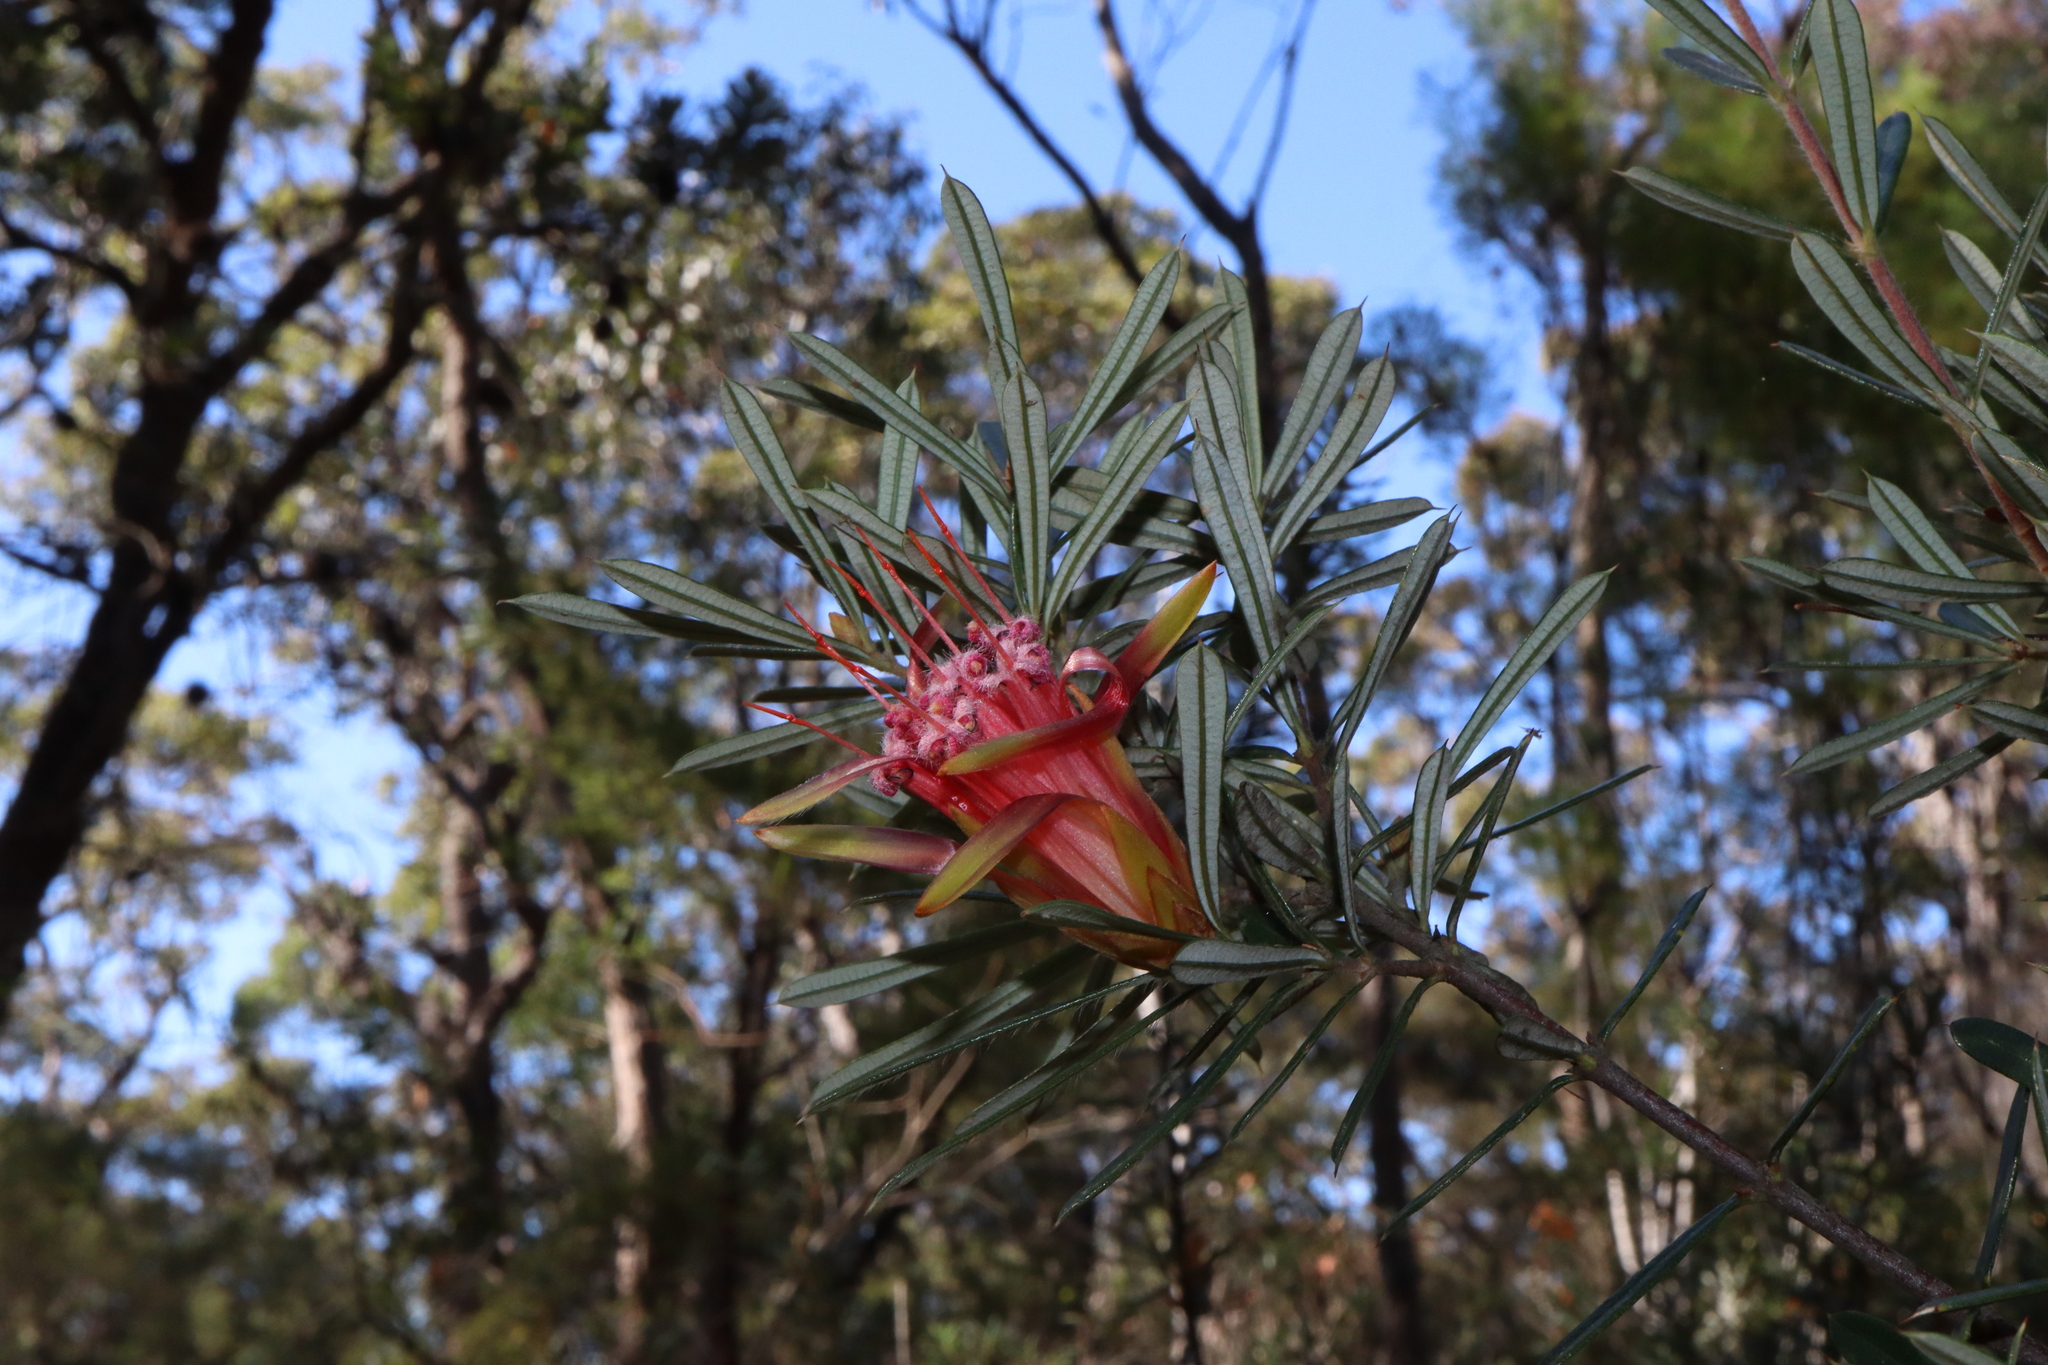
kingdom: Plantae
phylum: Tracheophyta
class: Magnoliopsida
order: Proteales
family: Proteaceae
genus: Lambertia
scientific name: Lambertia formosa
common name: Mountain-devil
